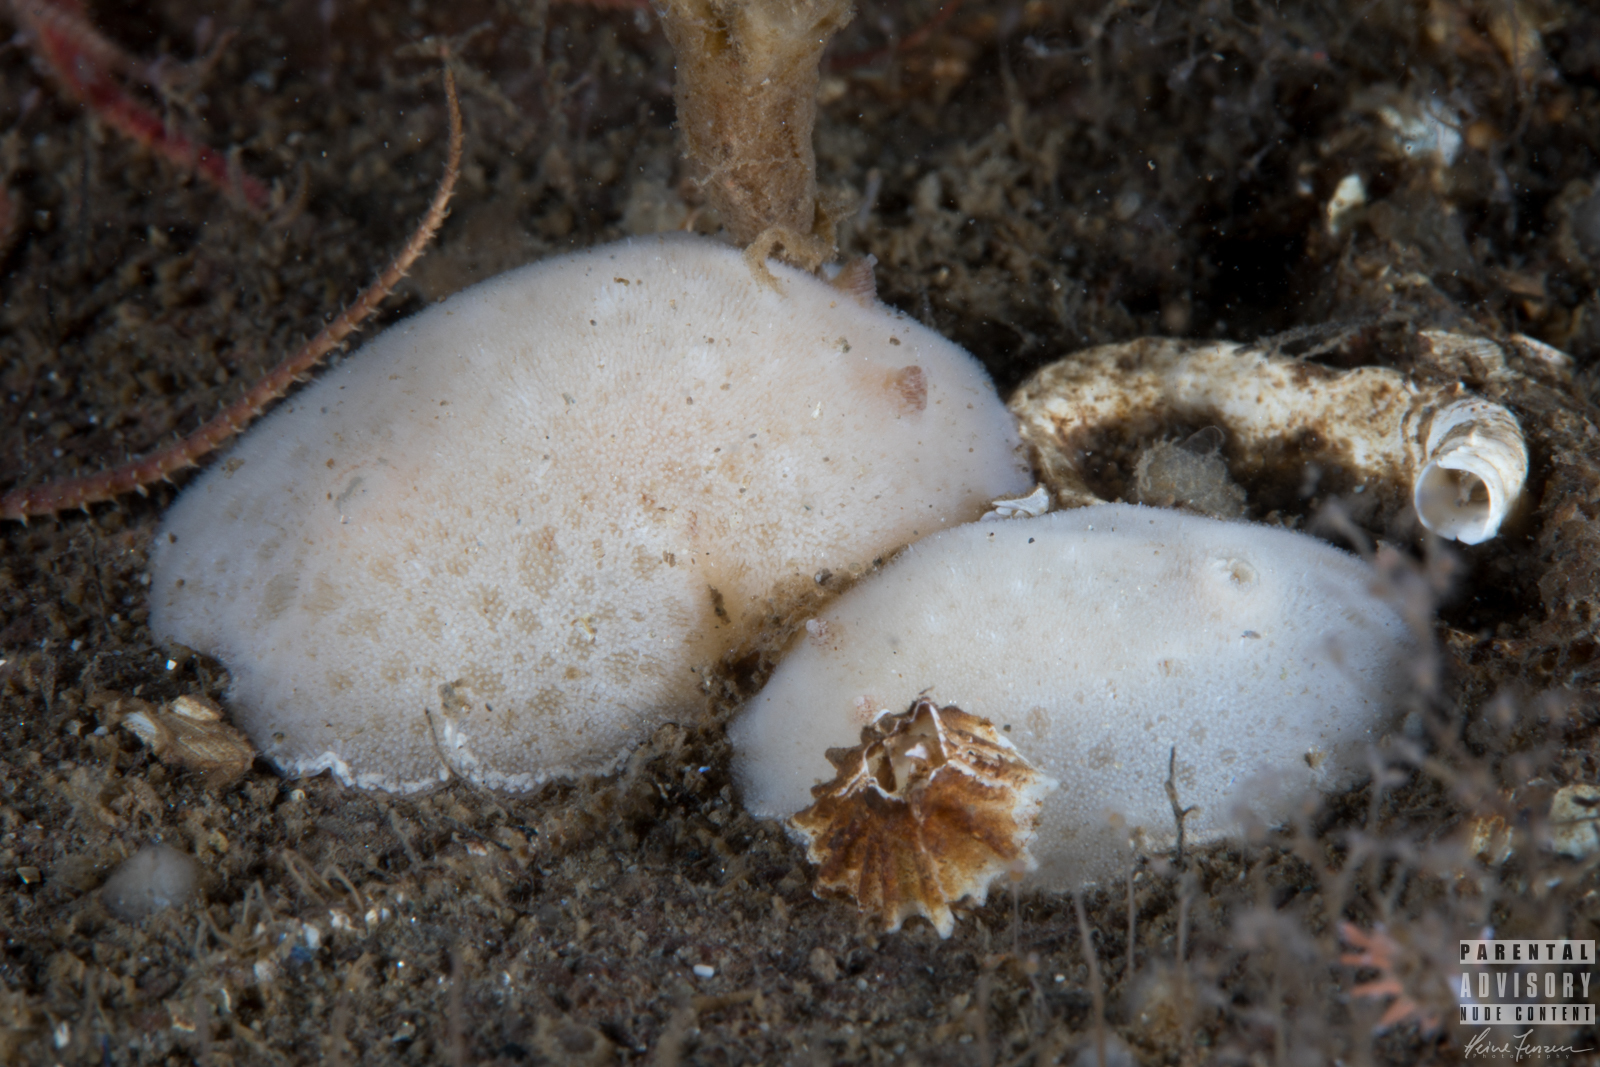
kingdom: Animalia
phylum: Mollusca
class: Gastropoda
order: Nudibranchia
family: Discodorididae
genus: Jorunna
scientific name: Jorunna tomentosa
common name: Grey sea slug
